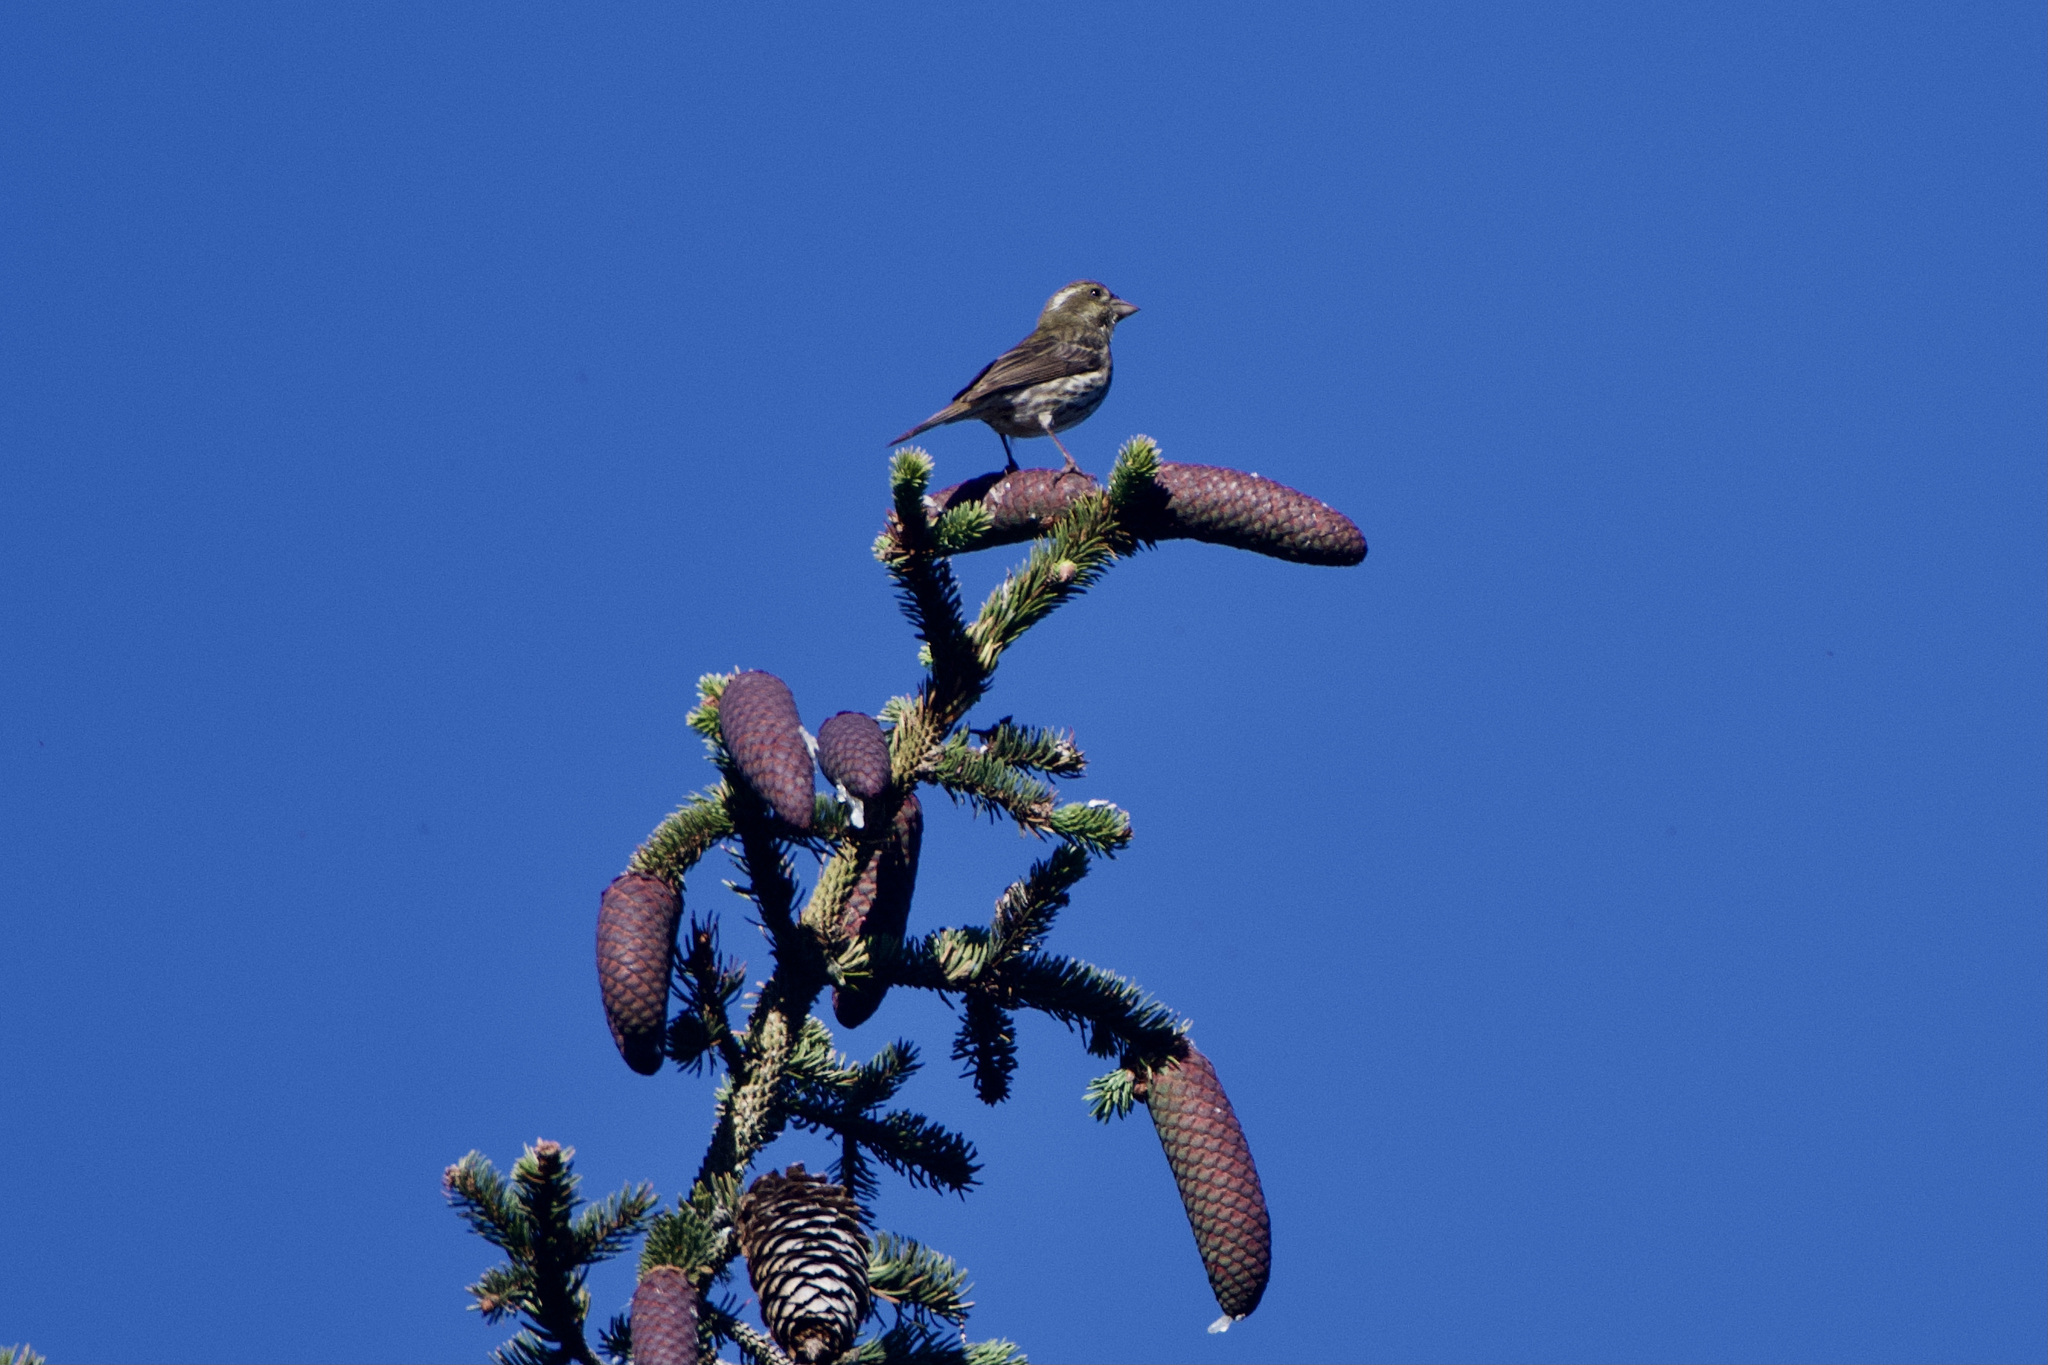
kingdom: Animalia
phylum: Chordata
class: Aves
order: Passeriformes
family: Fringillidae
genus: Haemorhous
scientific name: Haemorhous purpureus
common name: Purple finch
